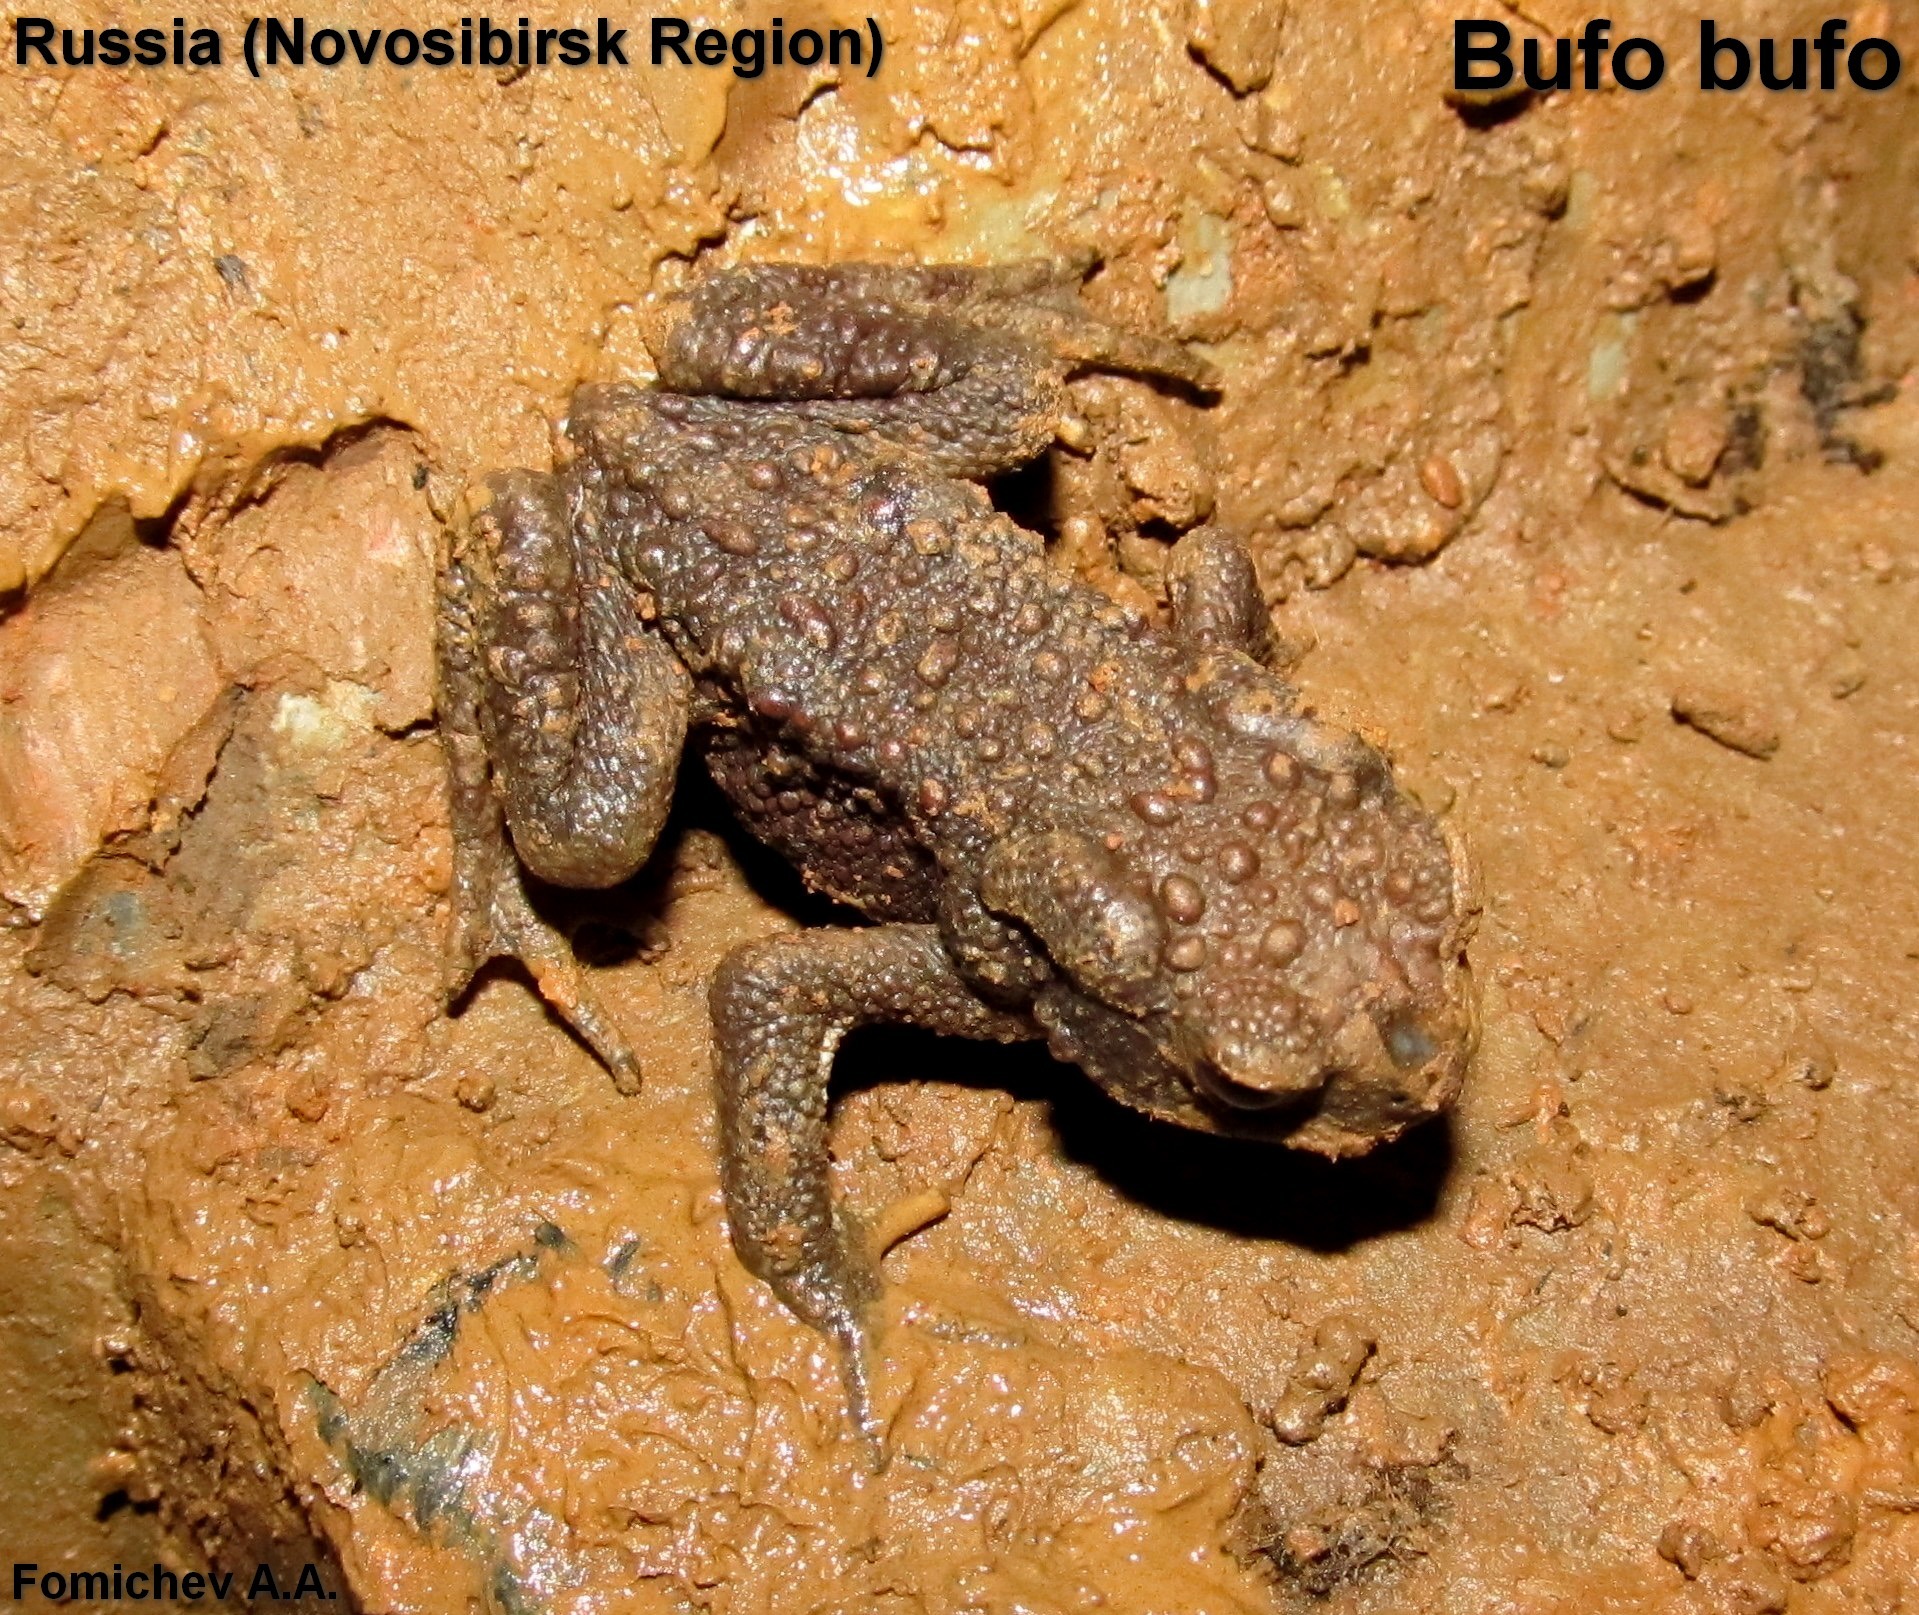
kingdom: Animalia
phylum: Chordata
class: Amphibia
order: Anura
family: Bufonidae
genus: Bufo
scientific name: Bufo bufo
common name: Common toad
